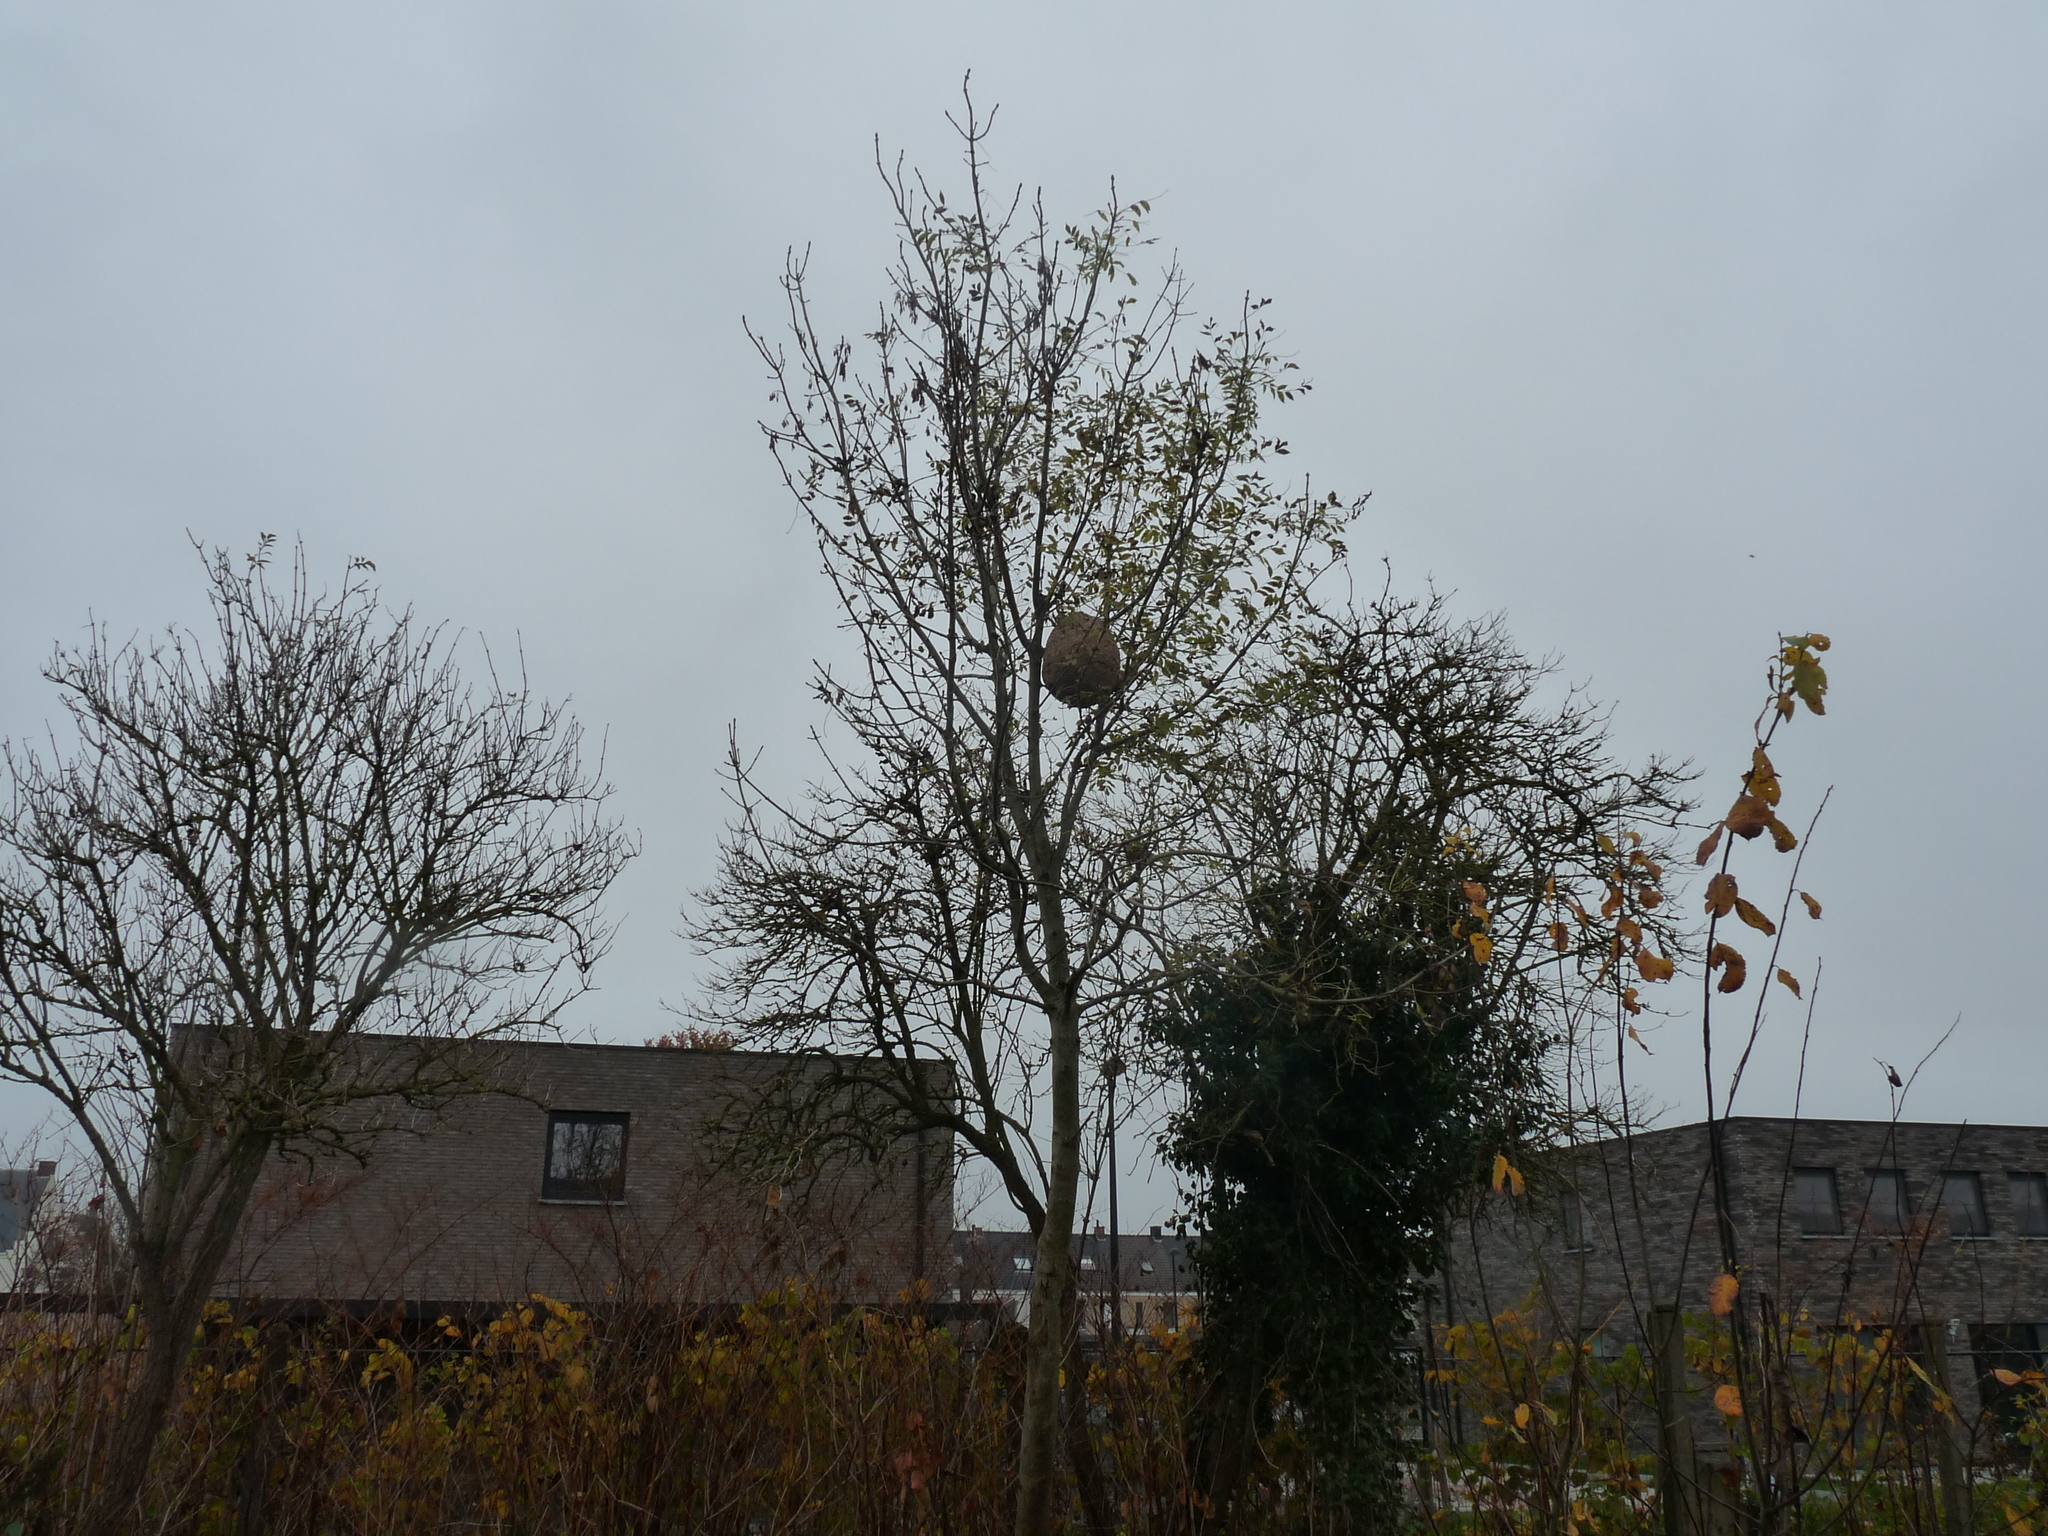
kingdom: Animalia
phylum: Arthropoda
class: Insecta
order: Hymenoptera
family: Vespidae
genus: Vespa
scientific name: Vespa velutina
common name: Asian hornet
